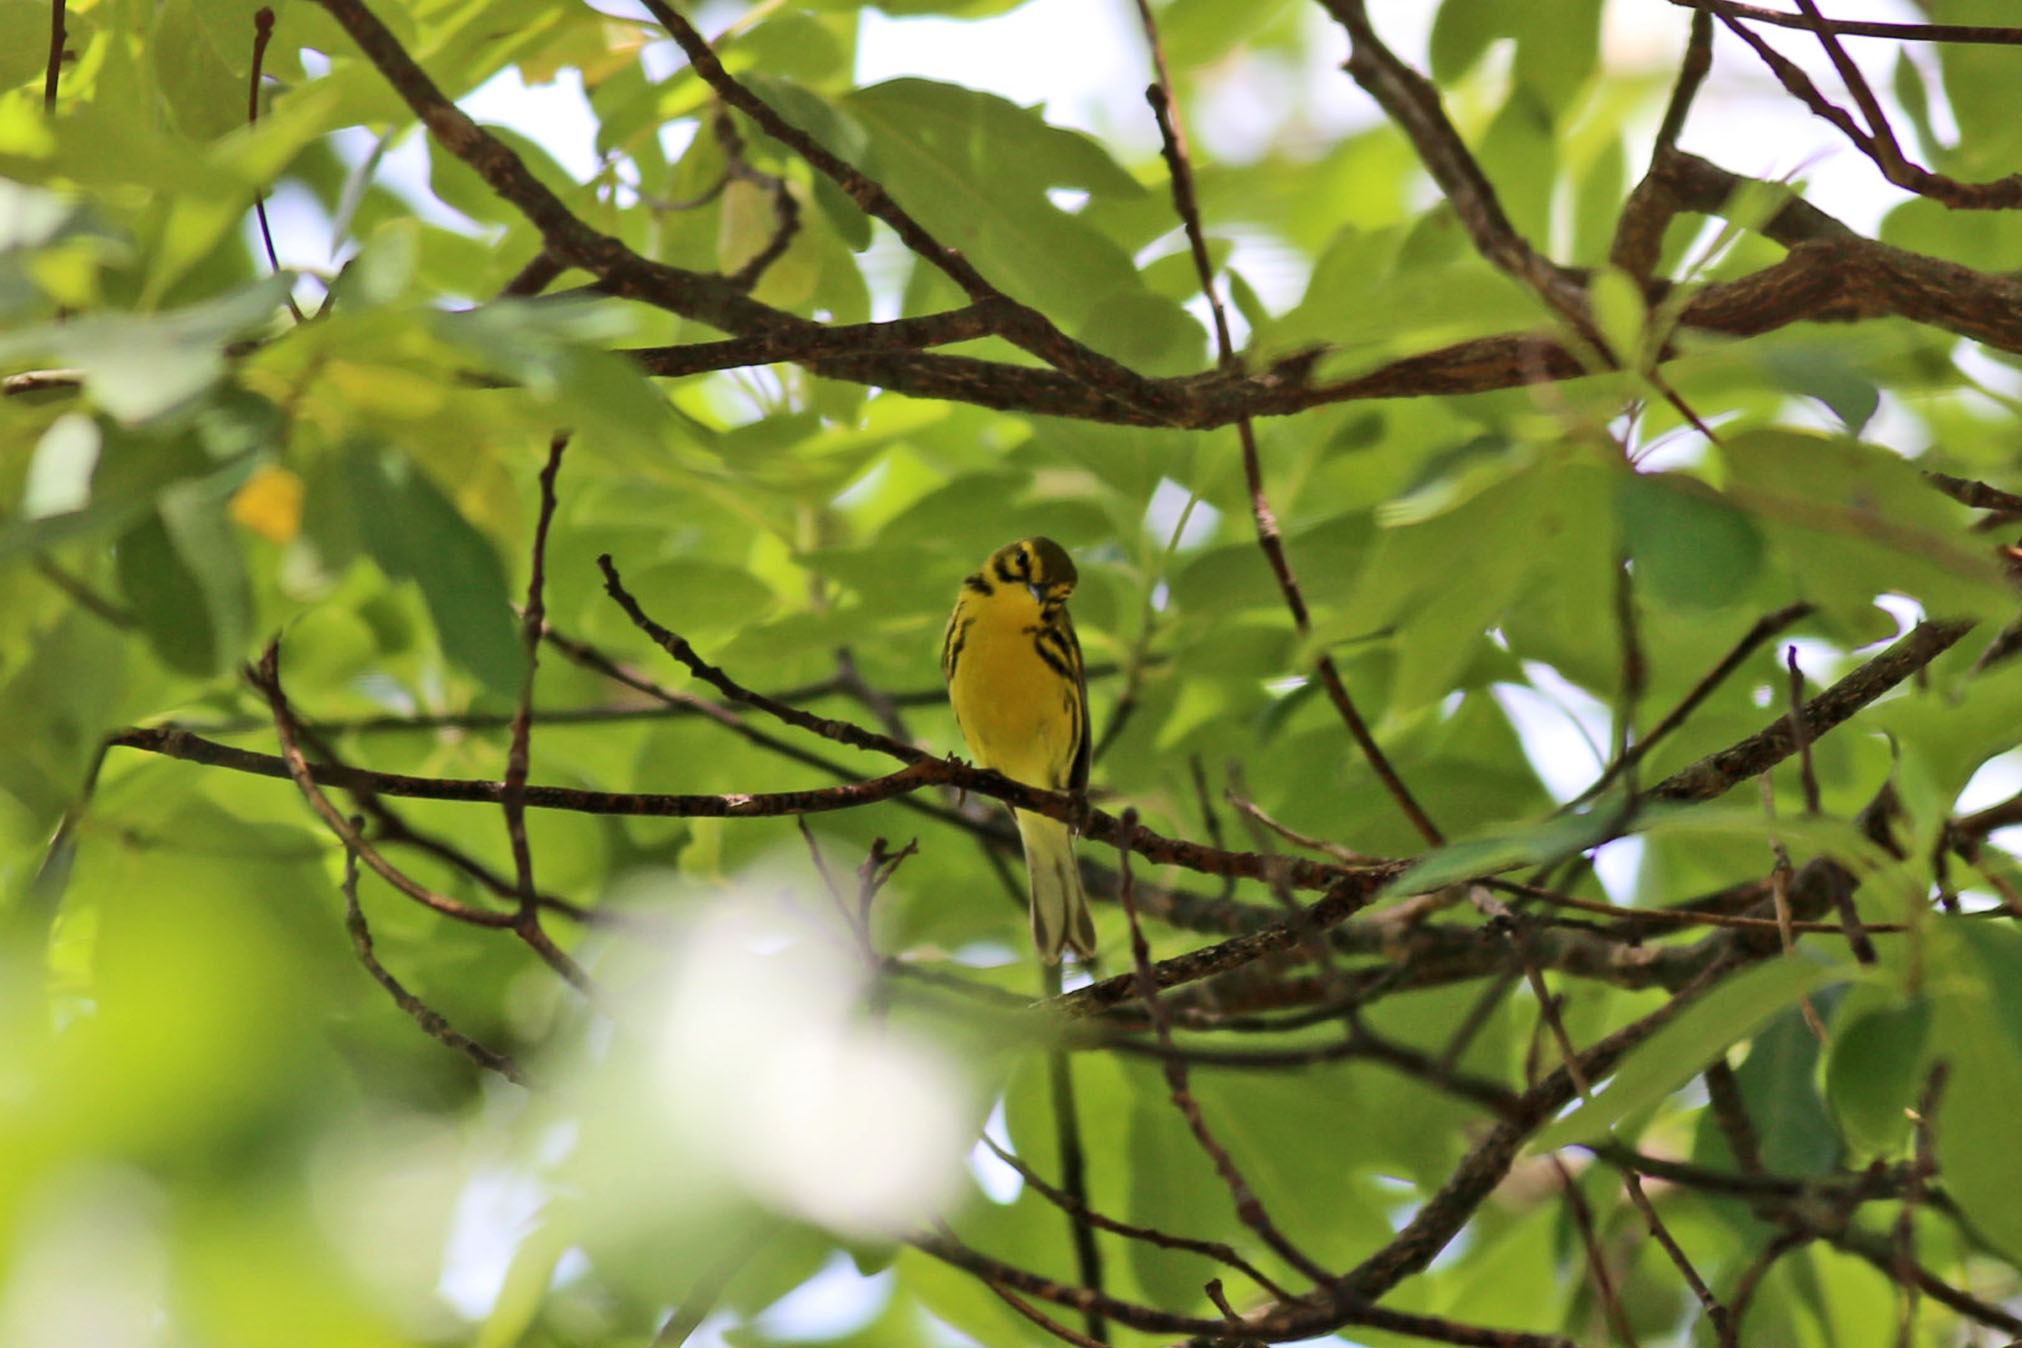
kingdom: Animalia
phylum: Chordata
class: Aves
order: Passeriformes
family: Parulidae
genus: Setophaga
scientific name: Setophaga discolor
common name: Prairie warbler
